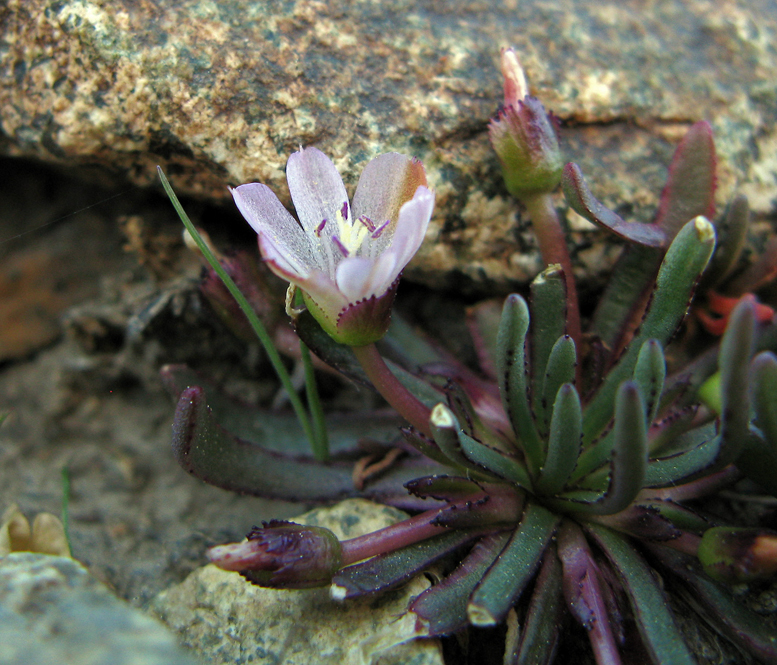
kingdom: Plantae
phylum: Tracheophyta
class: Magnoliopsida
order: Caryophyllales
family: Montiaceae
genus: Lewisia
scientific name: Lewisia glandulosa
